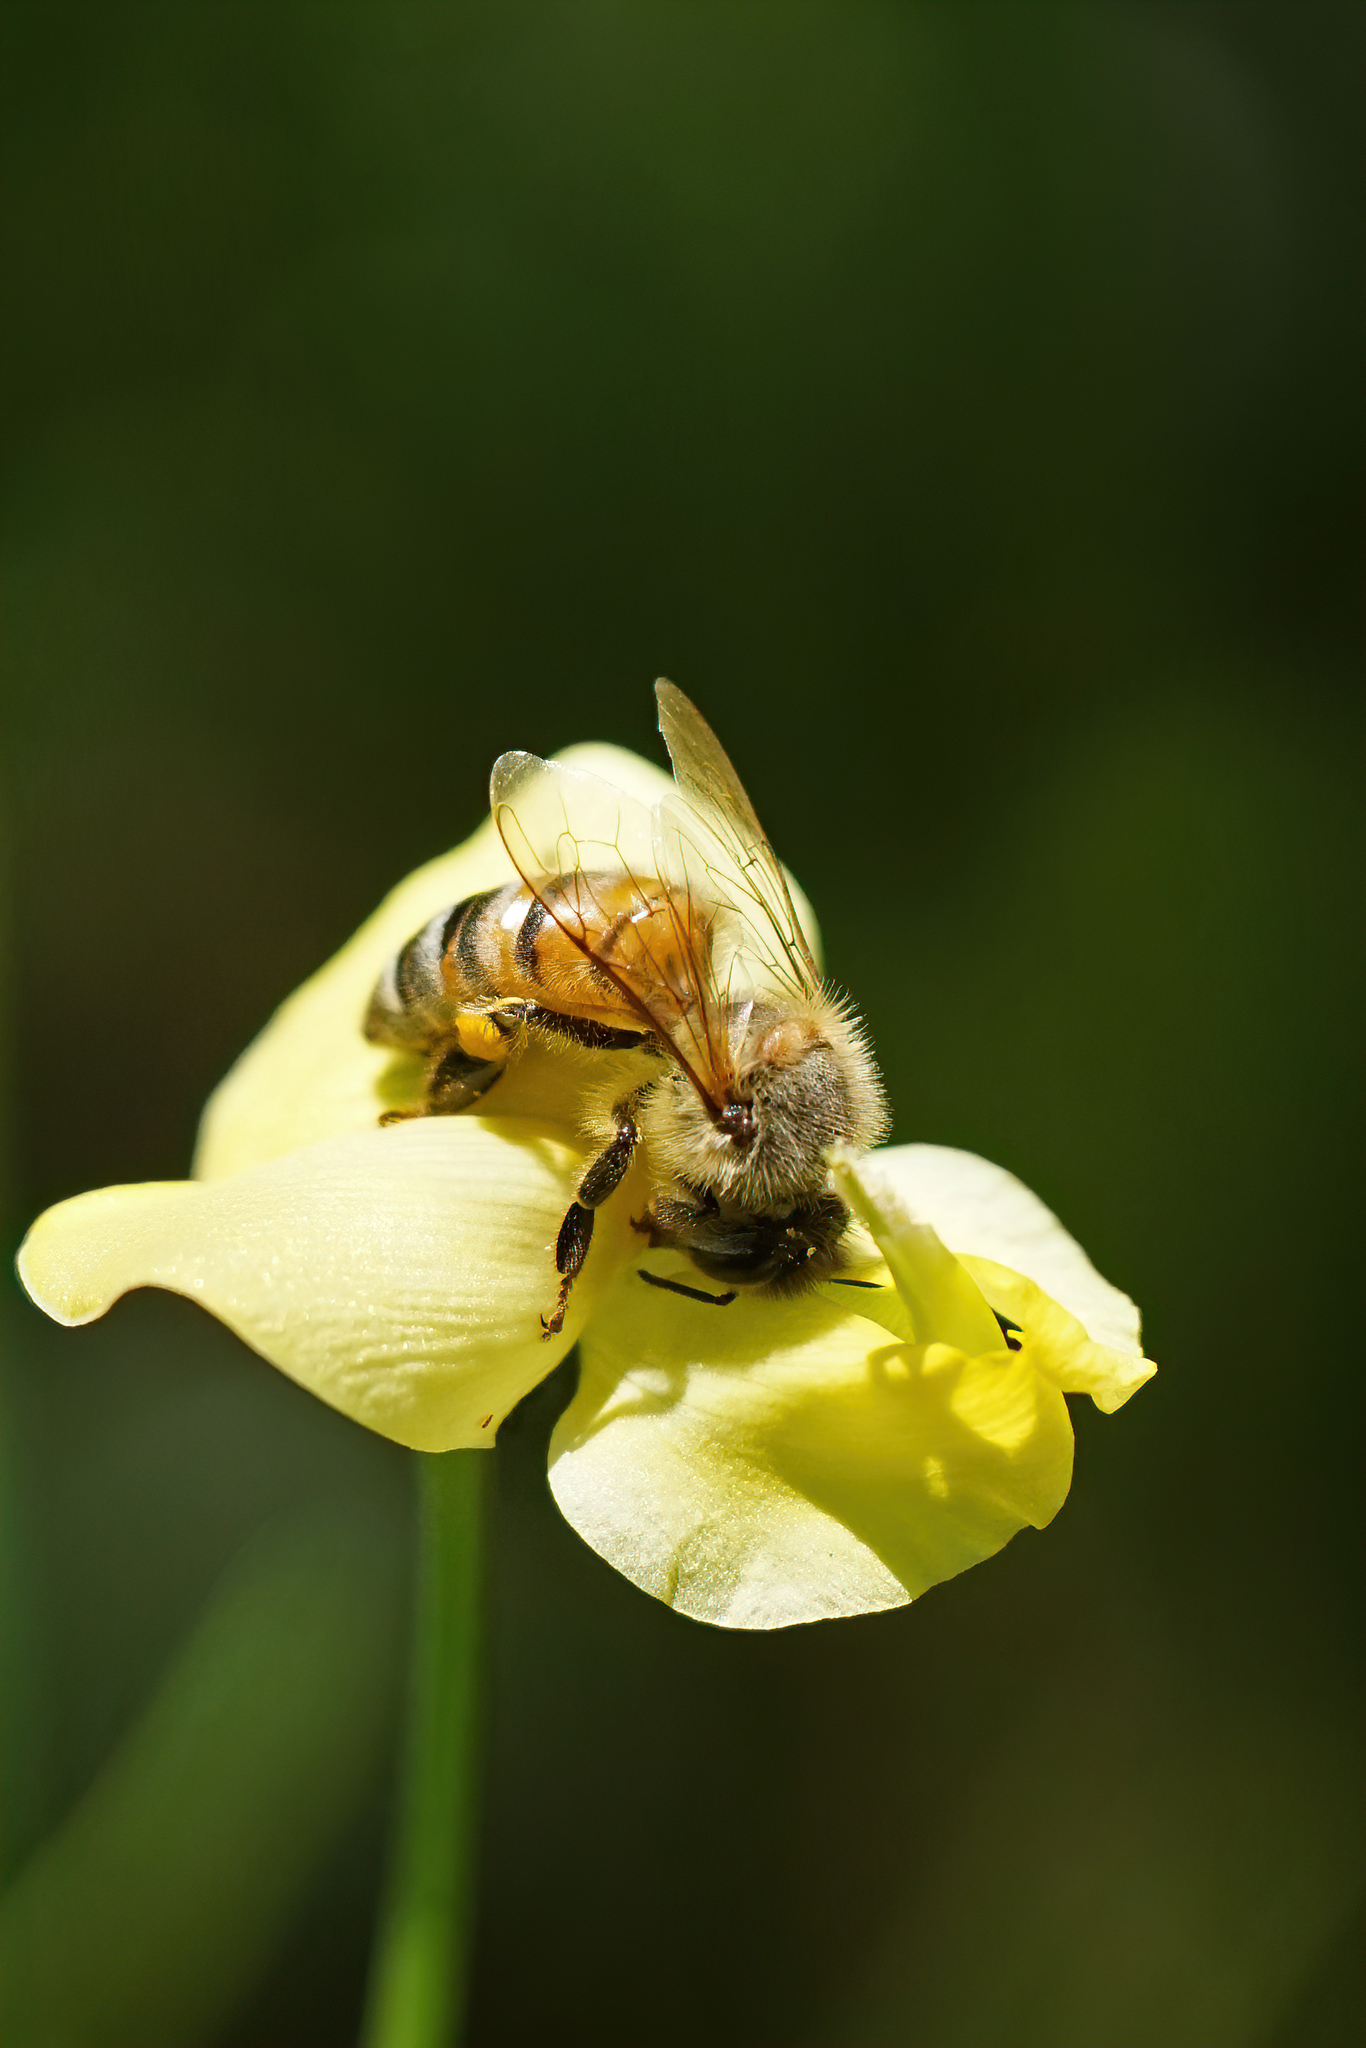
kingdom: Plantae
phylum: Tracheophyta
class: Magnoliopsida
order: Fabales
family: Fabaceae
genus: Vigna
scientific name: Vigna luteola
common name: Hairypod cowpea
